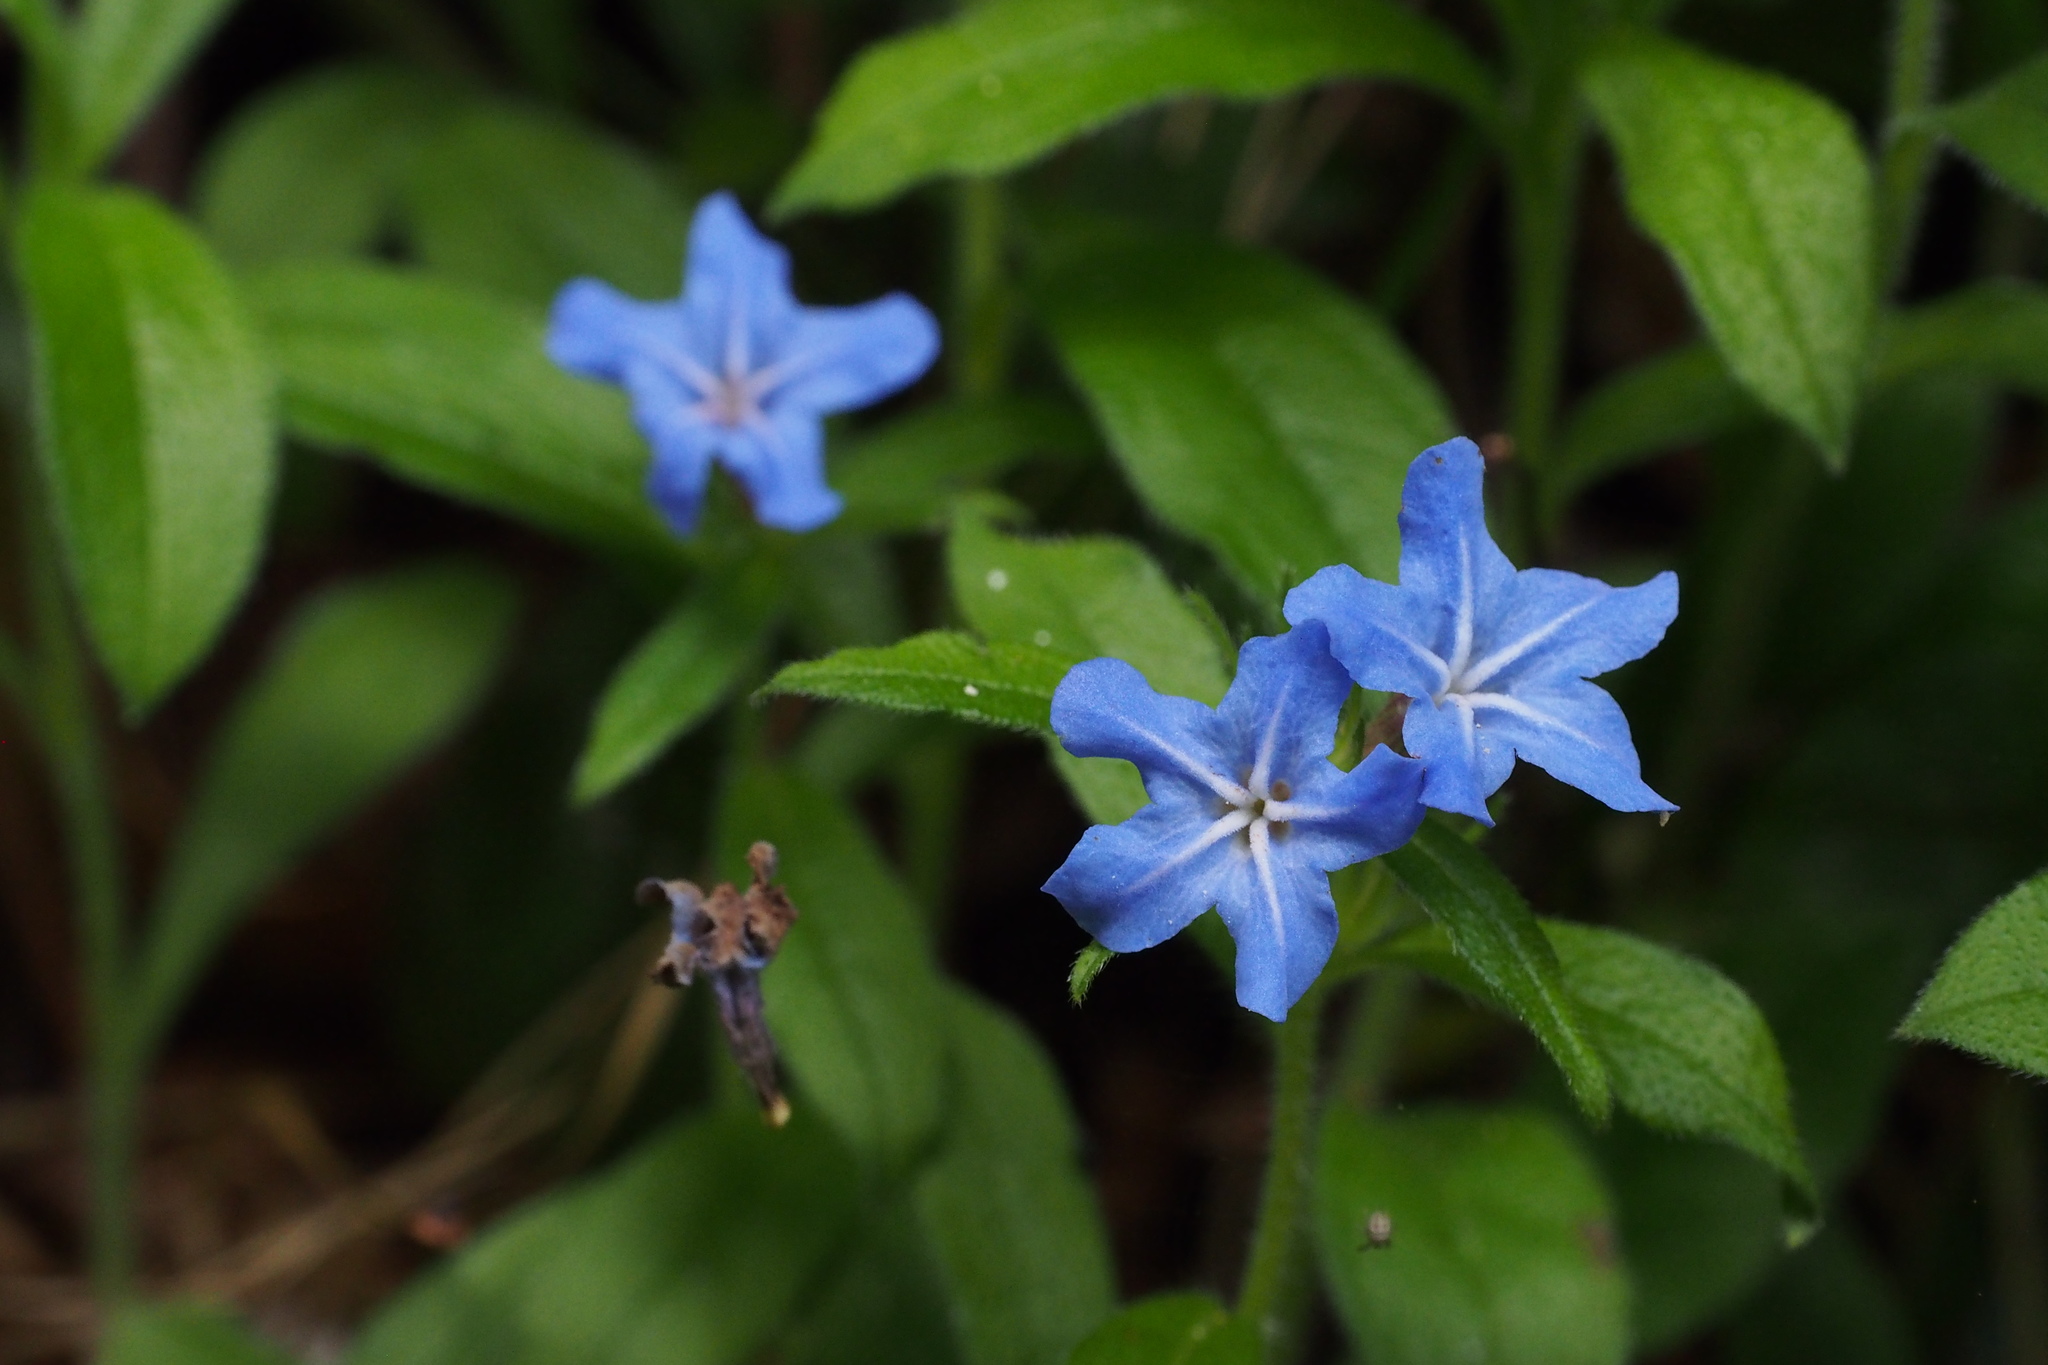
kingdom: Plantae
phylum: Tracheophyta
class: Magnoliopsida
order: Boraginales
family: Boraginaceae
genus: Aegonychon
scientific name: Aegonychon zollingeri
